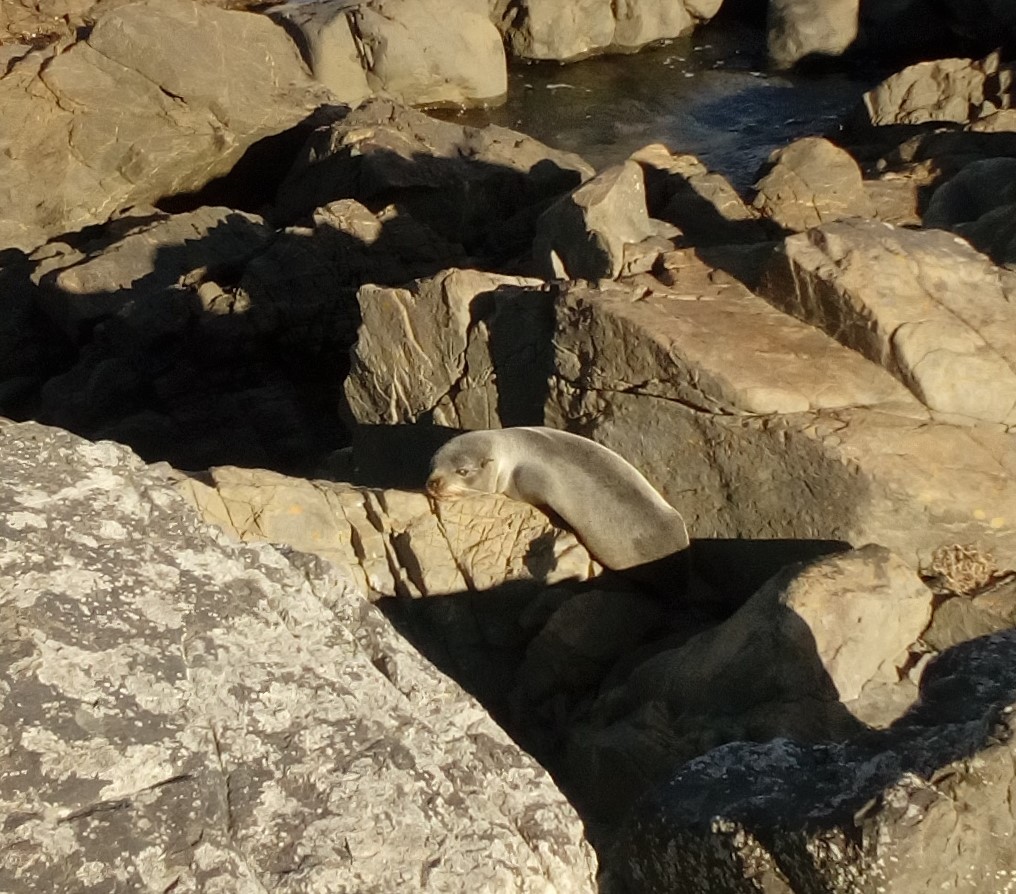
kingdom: Animalia
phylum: Chordata
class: Mammalia
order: Carnivora
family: Otariidae
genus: Arctocephalus
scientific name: Arctocephalus forsteri
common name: New zealand fur seal
